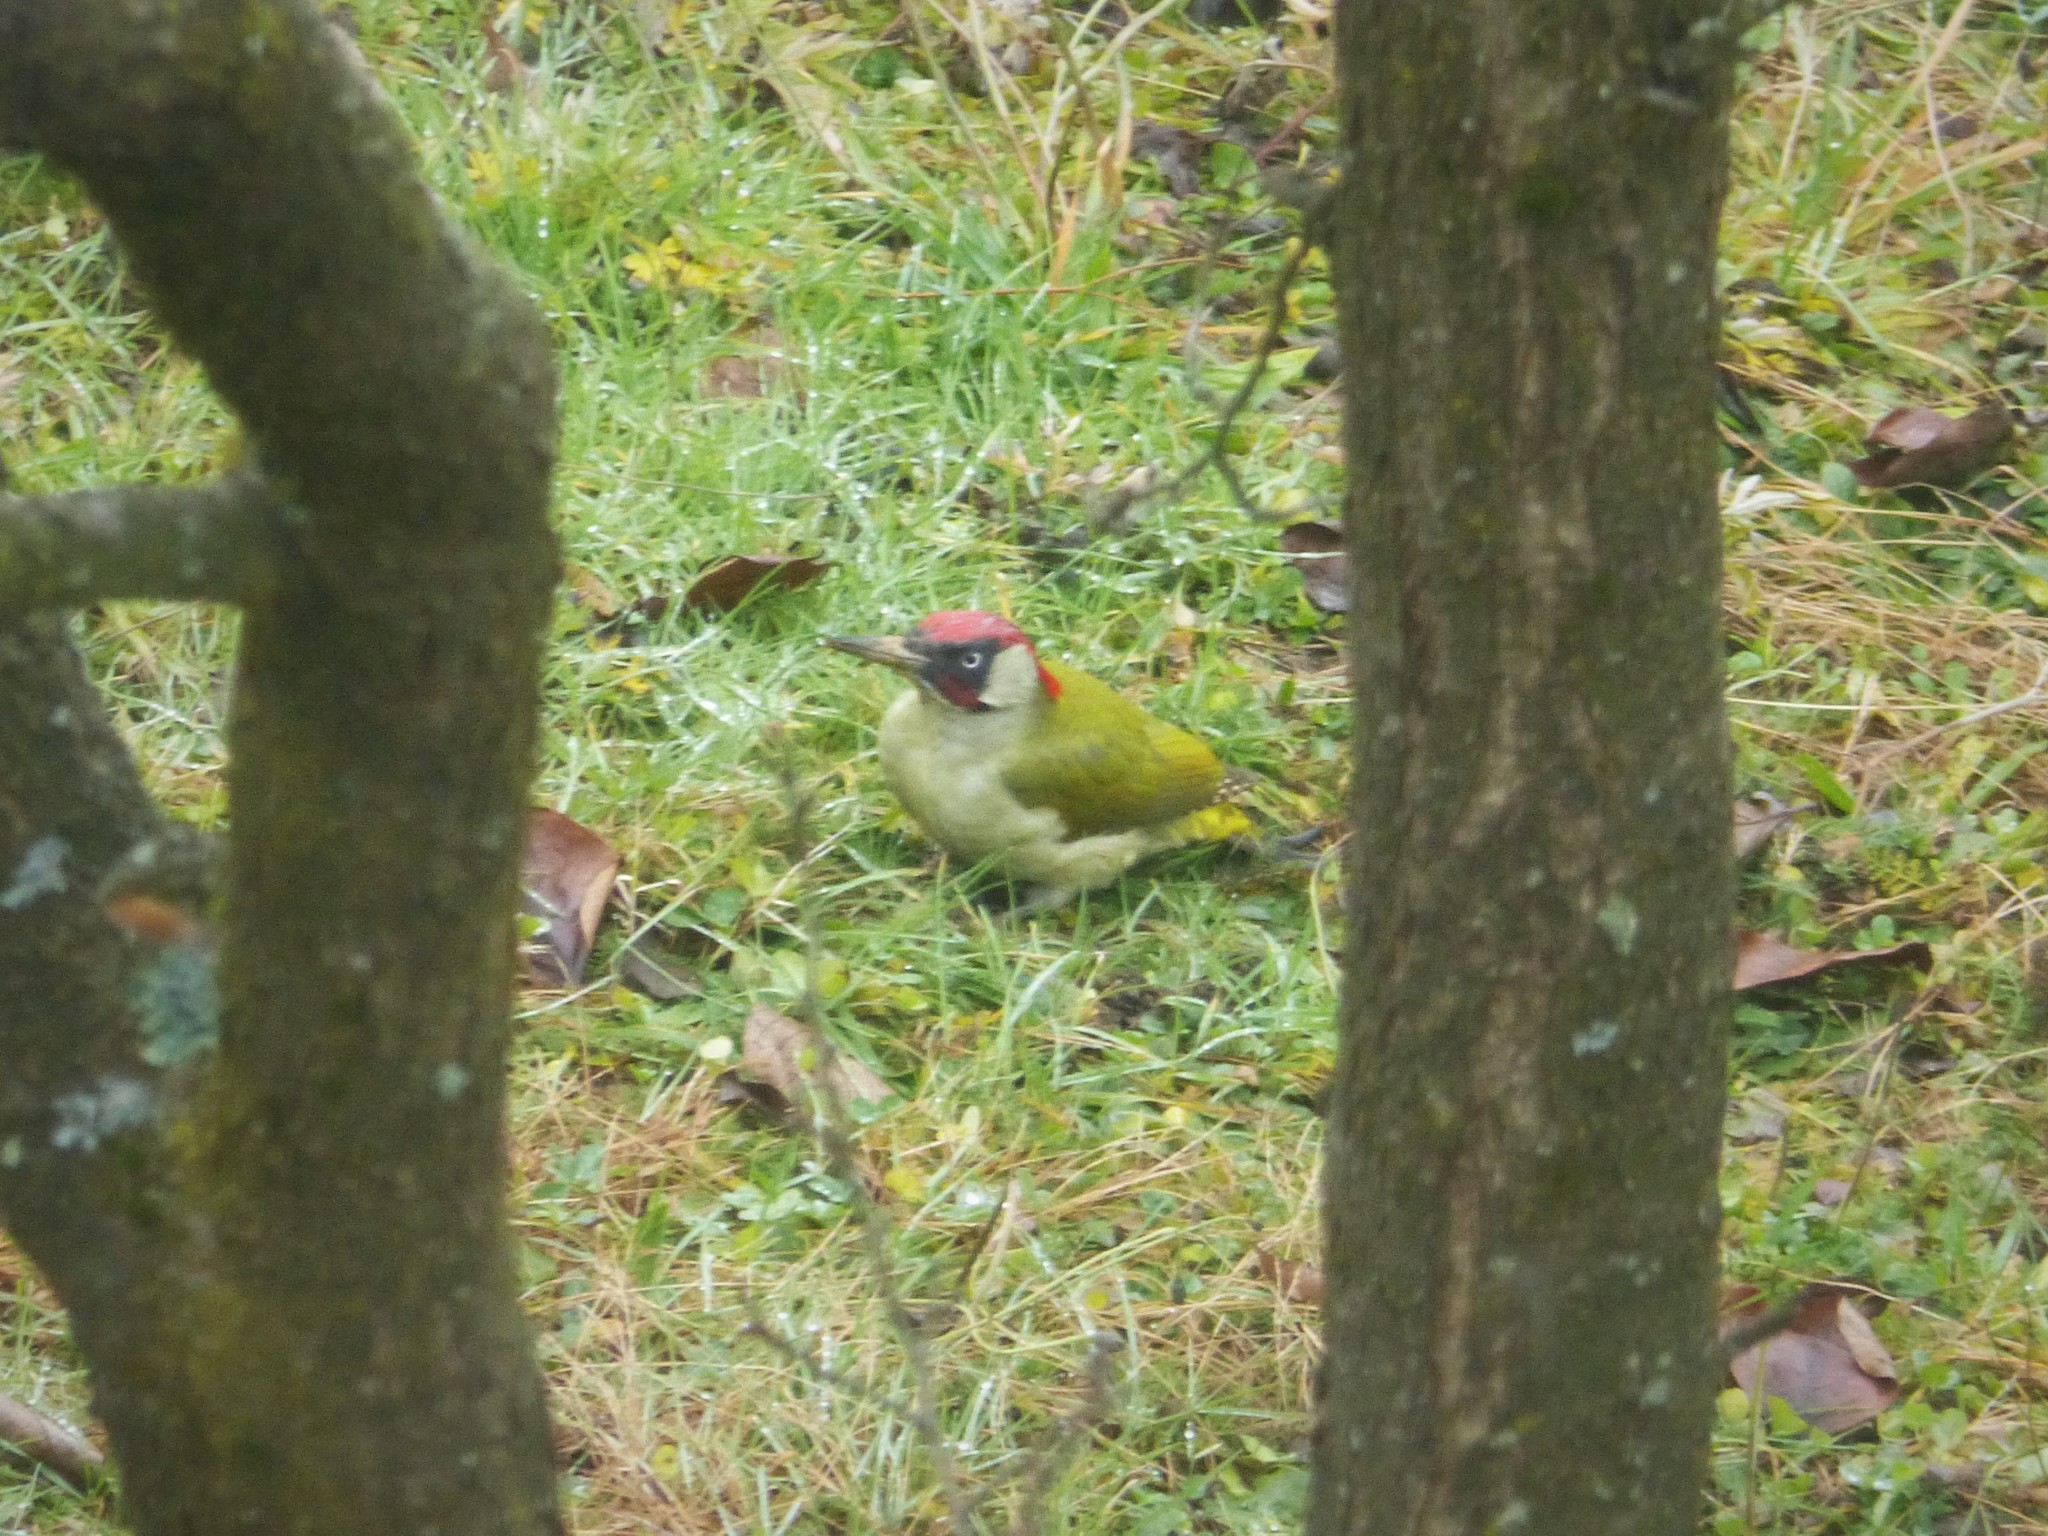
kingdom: Animalia
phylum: Chordata
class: Aves
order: Piciformes
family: Picidae
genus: Picus
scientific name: Picus viridis
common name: European green woodpecker
